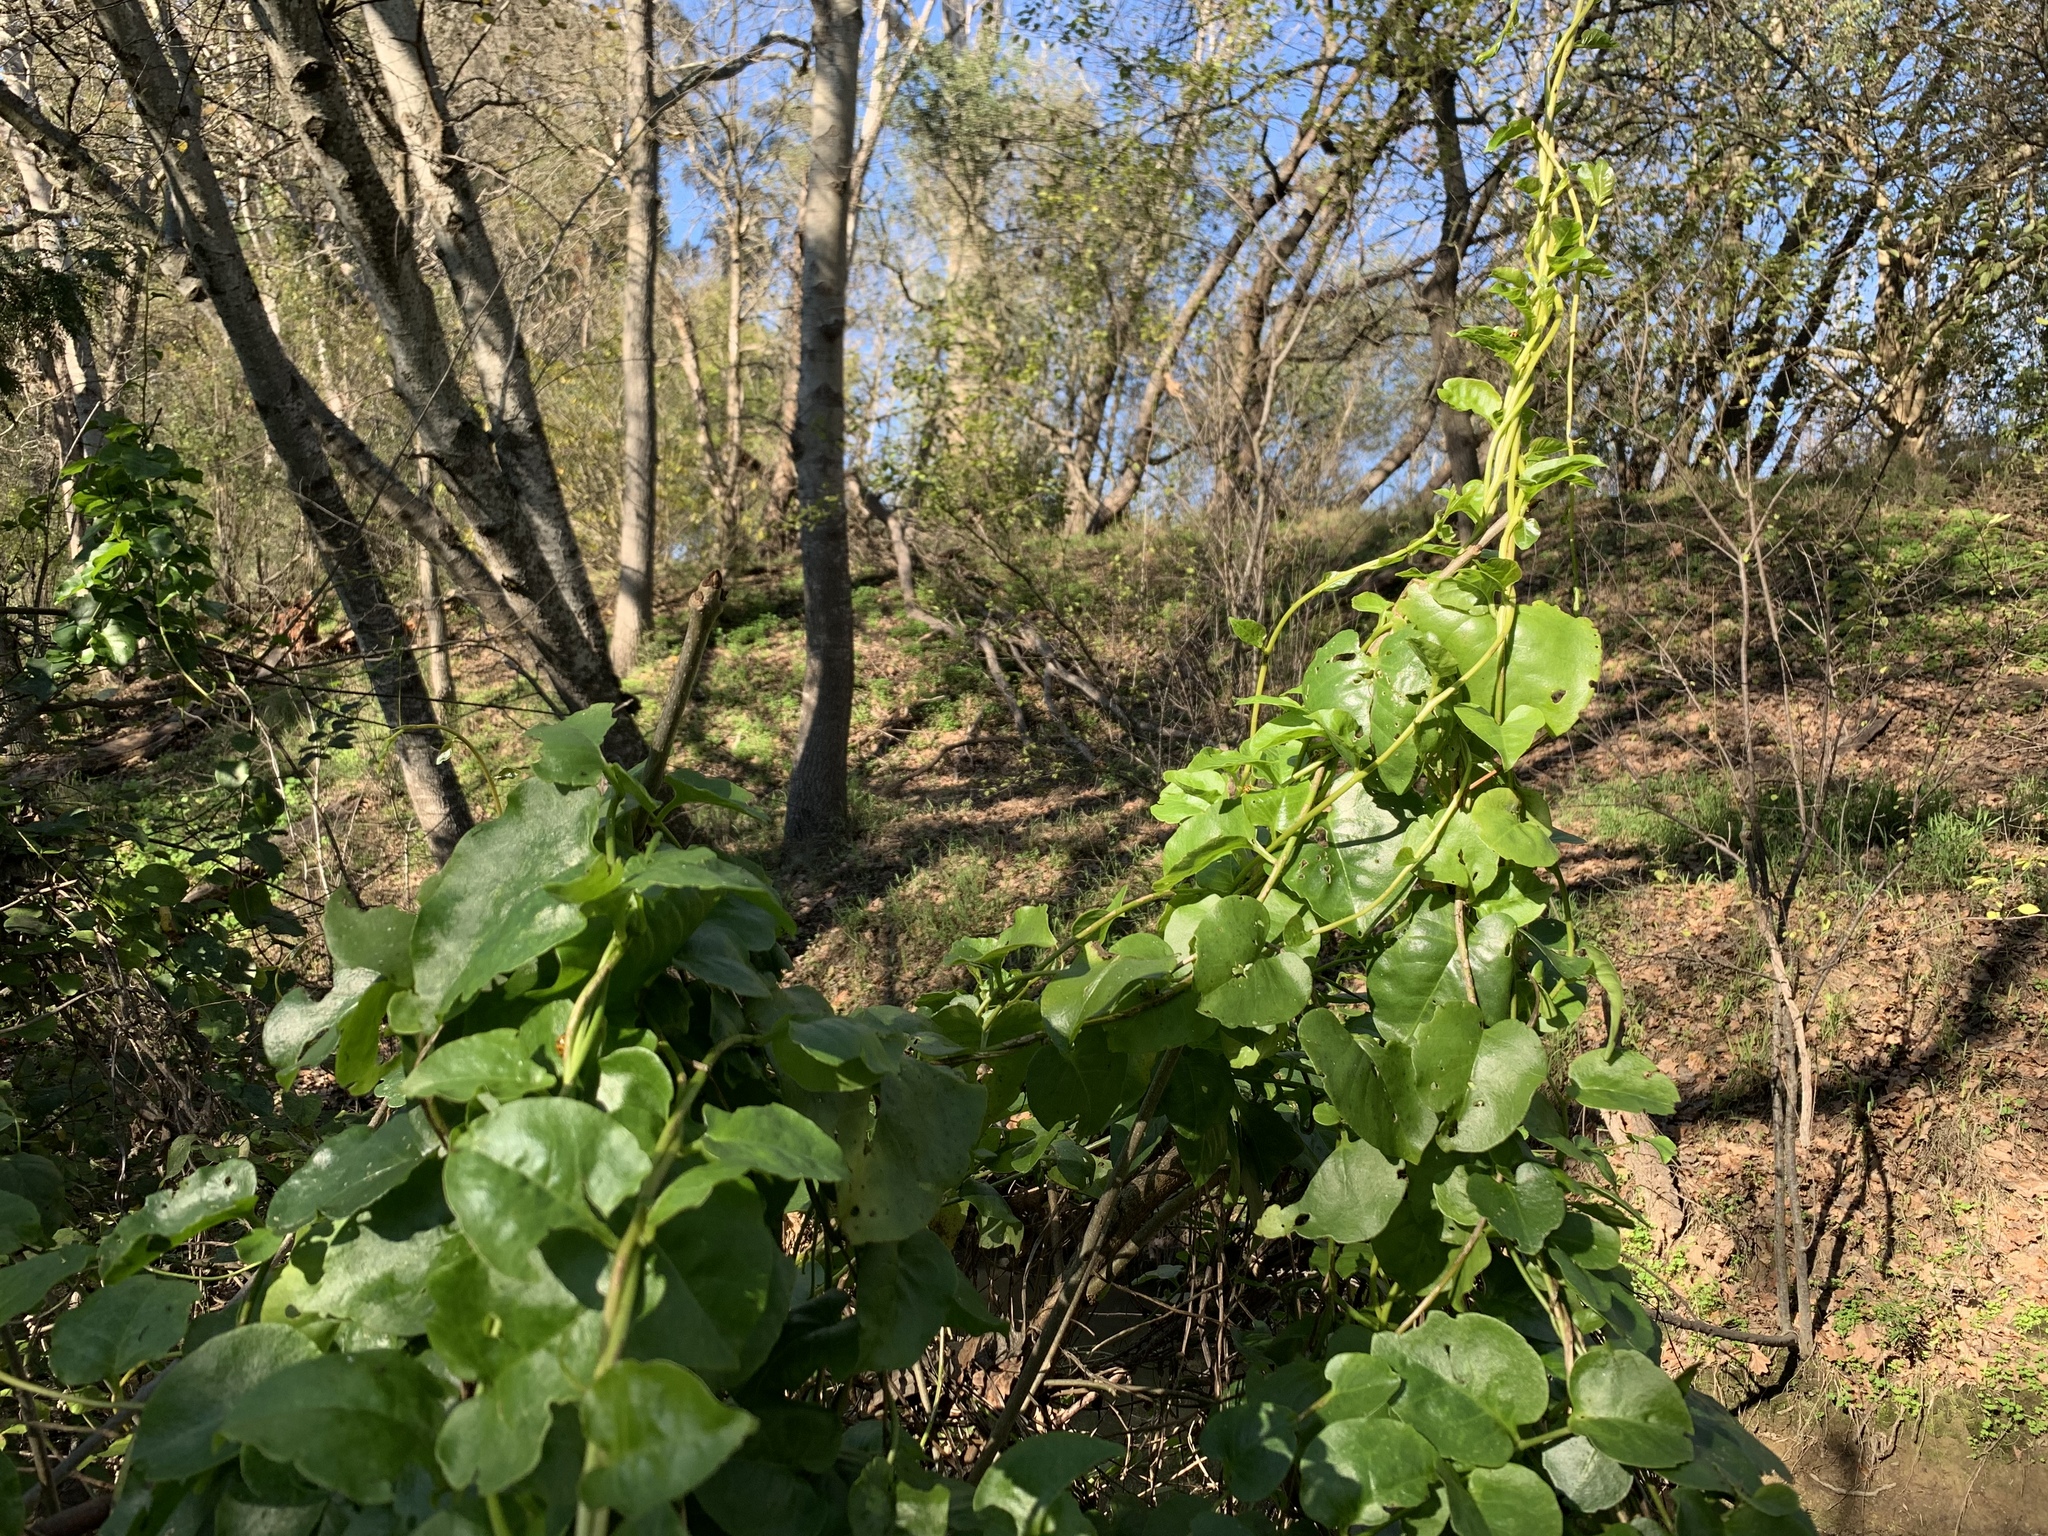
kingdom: Plantae
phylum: Tracheophyta
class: Magnoliopsida
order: Caryophyllales
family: Basellaceae
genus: Anredera
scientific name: Anredera cordifolia
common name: Heartleaf madeiravine
